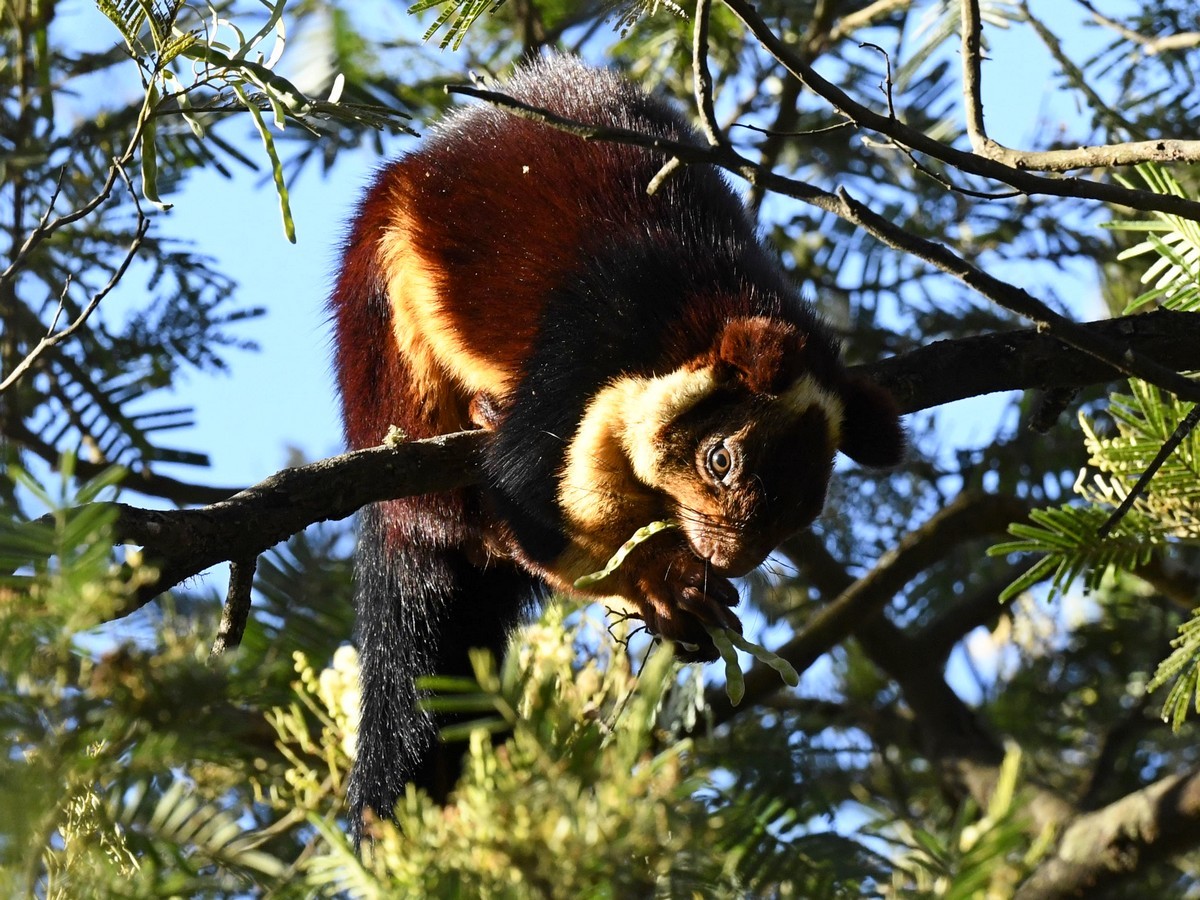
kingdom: Animalia
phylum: Chordata
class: Mammalia
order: Rodentia
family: Sciuridae
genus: Ratufa
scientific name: Ratufa indica
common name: Indian giant squirrel
